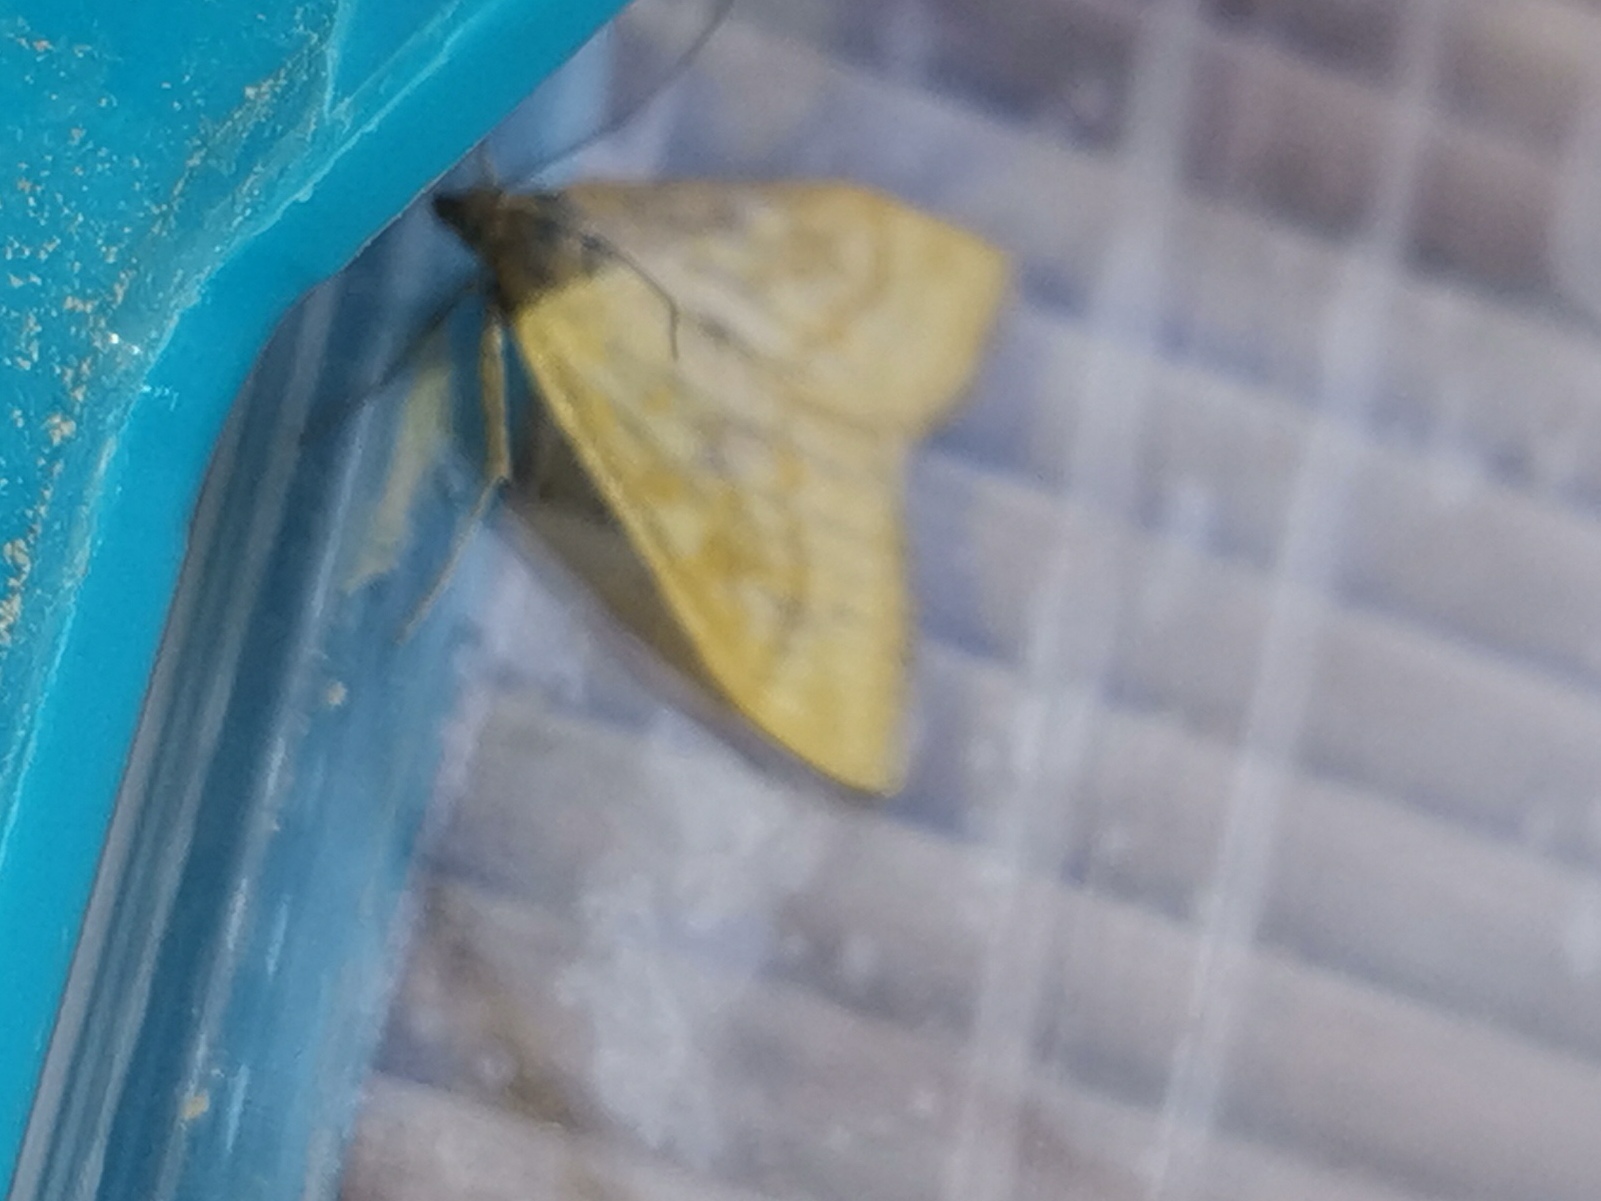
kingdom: Animalia
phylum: Arthropoda
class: Insecta
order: Lepidoptera
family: Crambidae
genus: Sitochroa
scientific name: Sitochroa verticalis
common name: Lesser pearl
